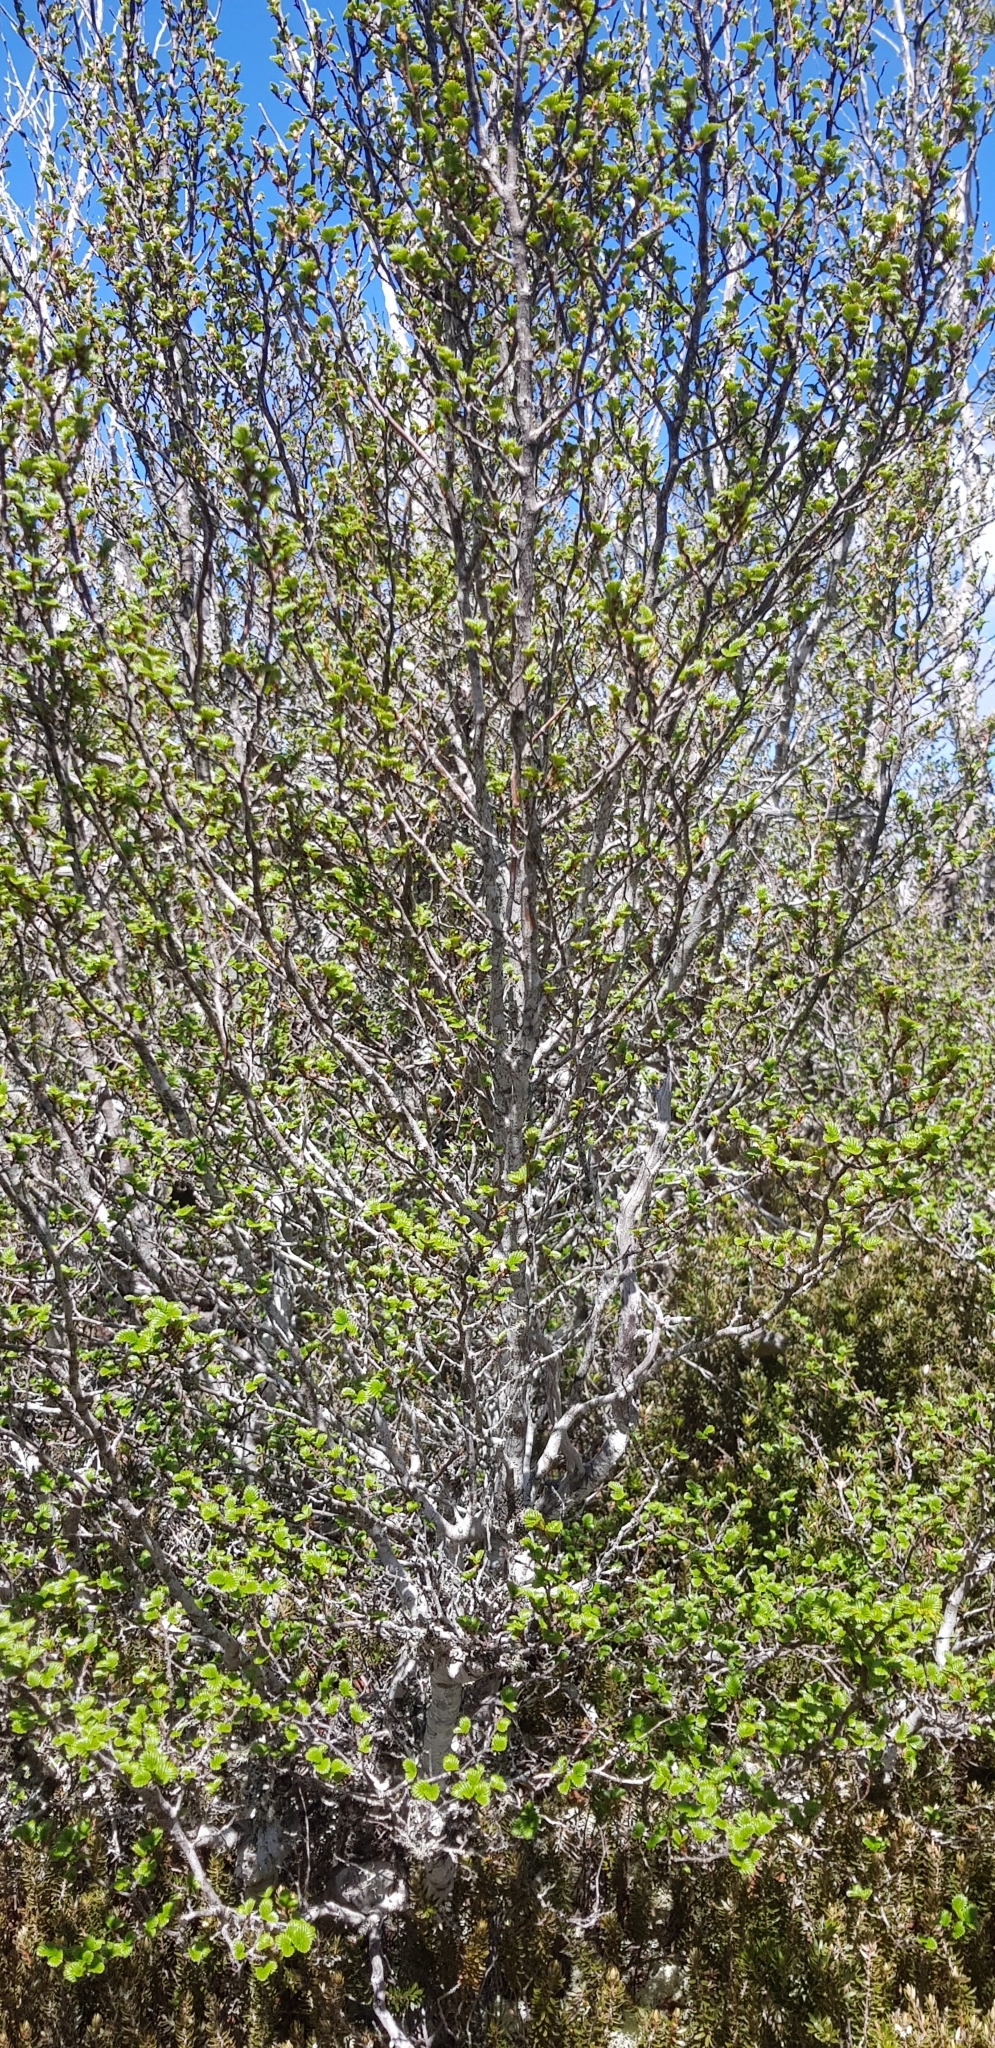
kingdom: Plantae
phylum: Tracheophyta
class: Magnoliopsida
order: Fagales
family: Nothofagaceae
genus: Nothofagus
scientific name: Nothofagus gunnii
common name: Tanglefoot
